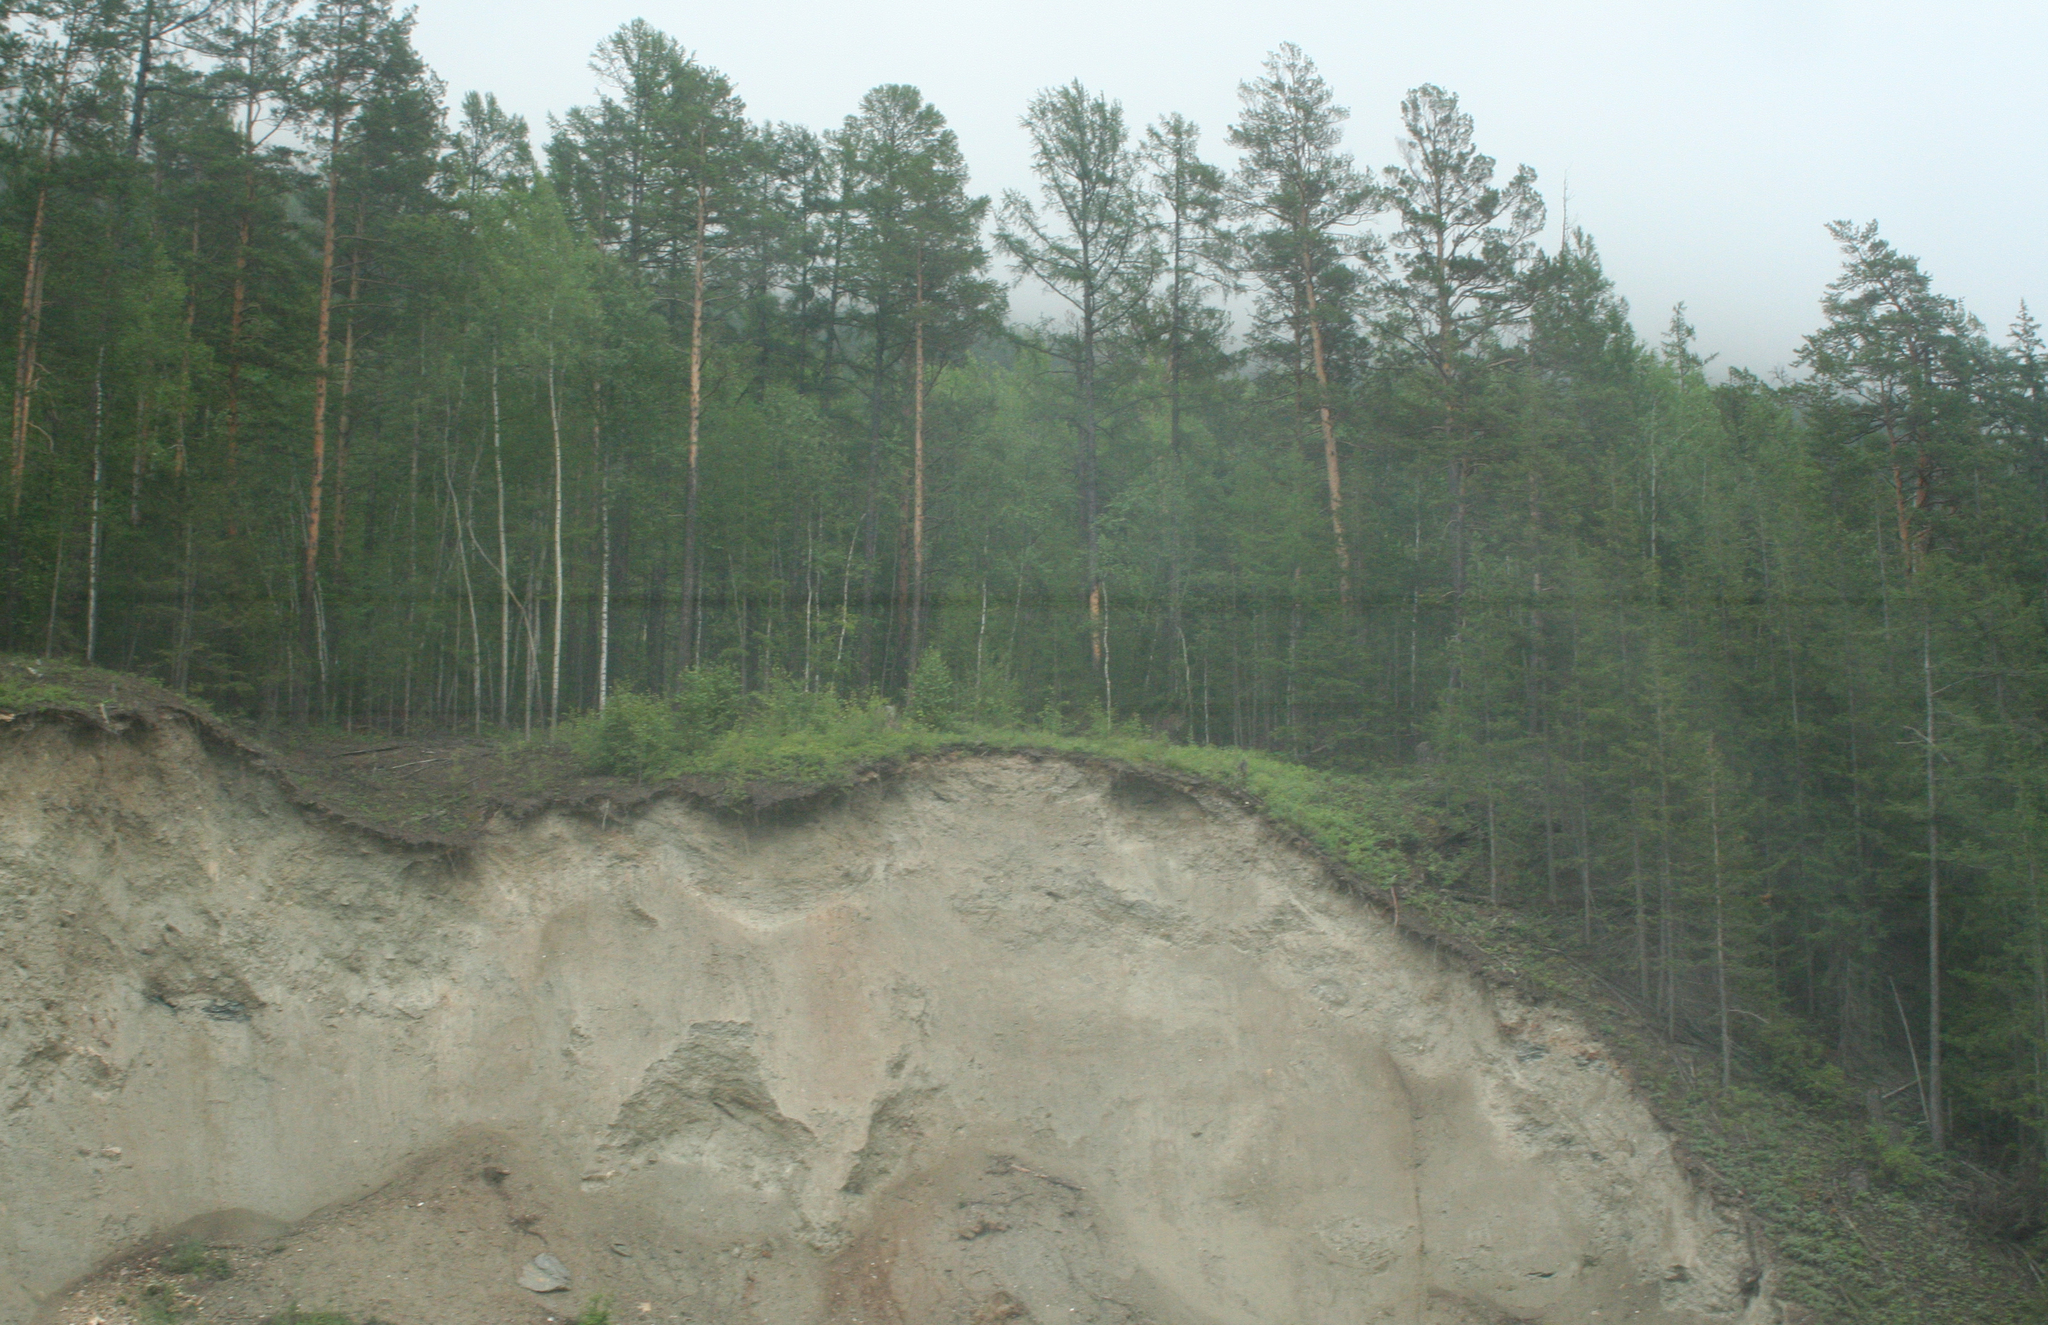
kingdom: Plantae
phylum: Tracheophyta
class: Pinopsida
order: Pinales
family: Pinaceae
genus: Pinus
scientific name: Pinus sylvestris
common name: Scots pine
